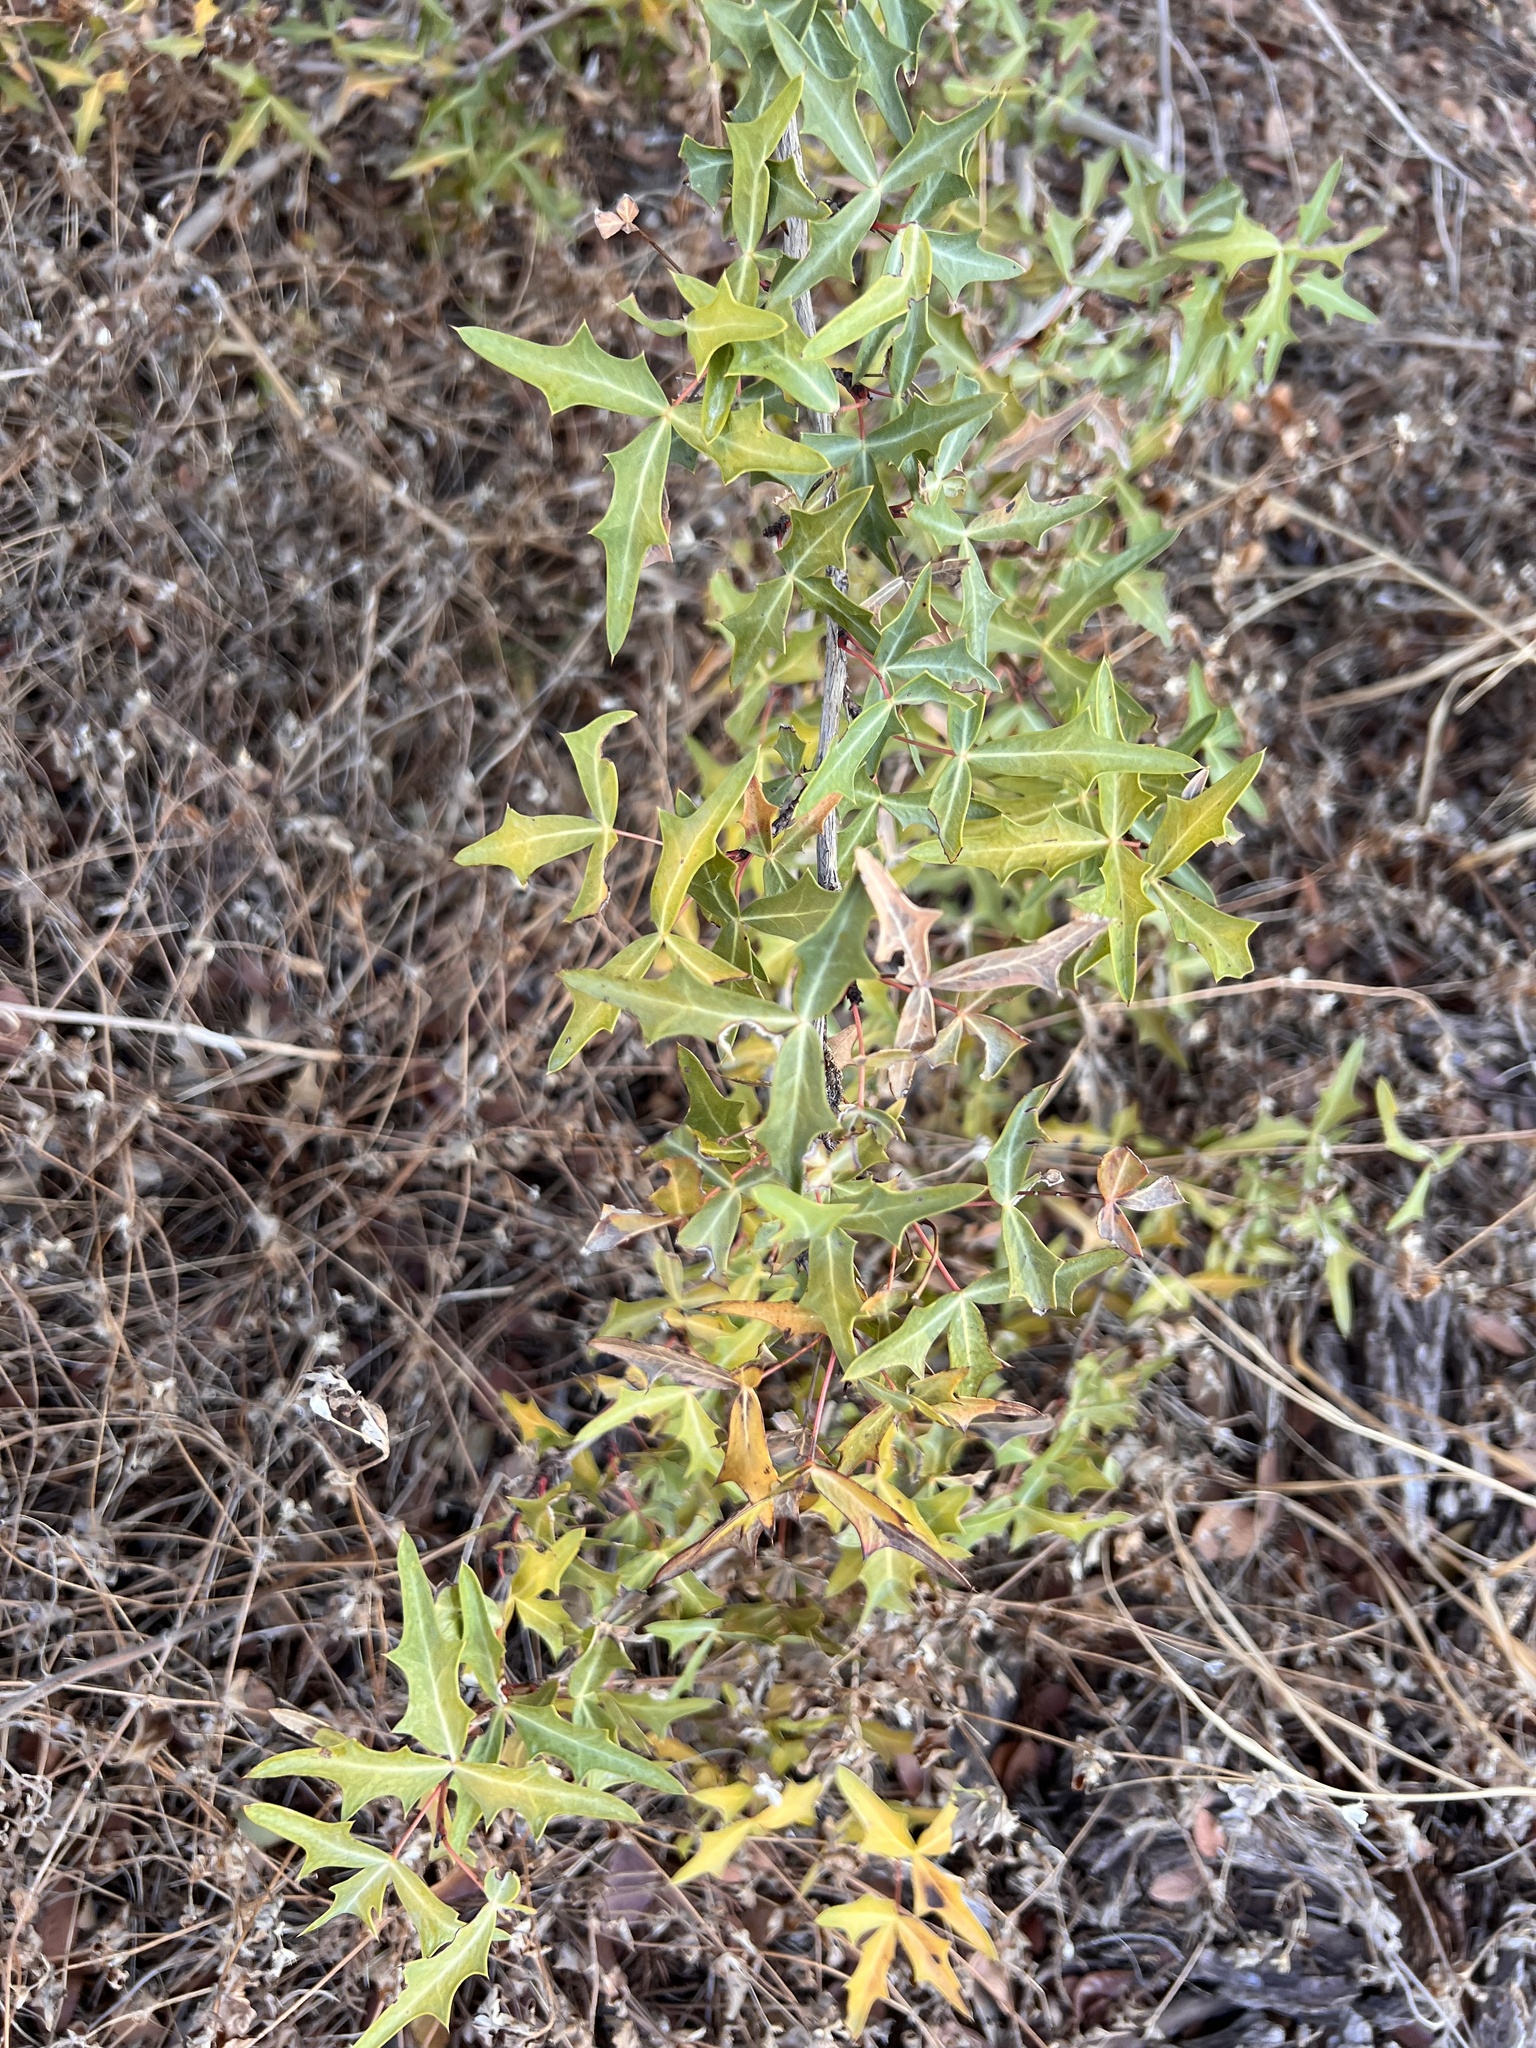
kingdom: Plantae
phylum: Tracheophyta
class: Magnoliopsida
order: Ranunculales
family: Berberidaceae
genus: Alloberberis
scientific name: Alloberberis trifoliolata
